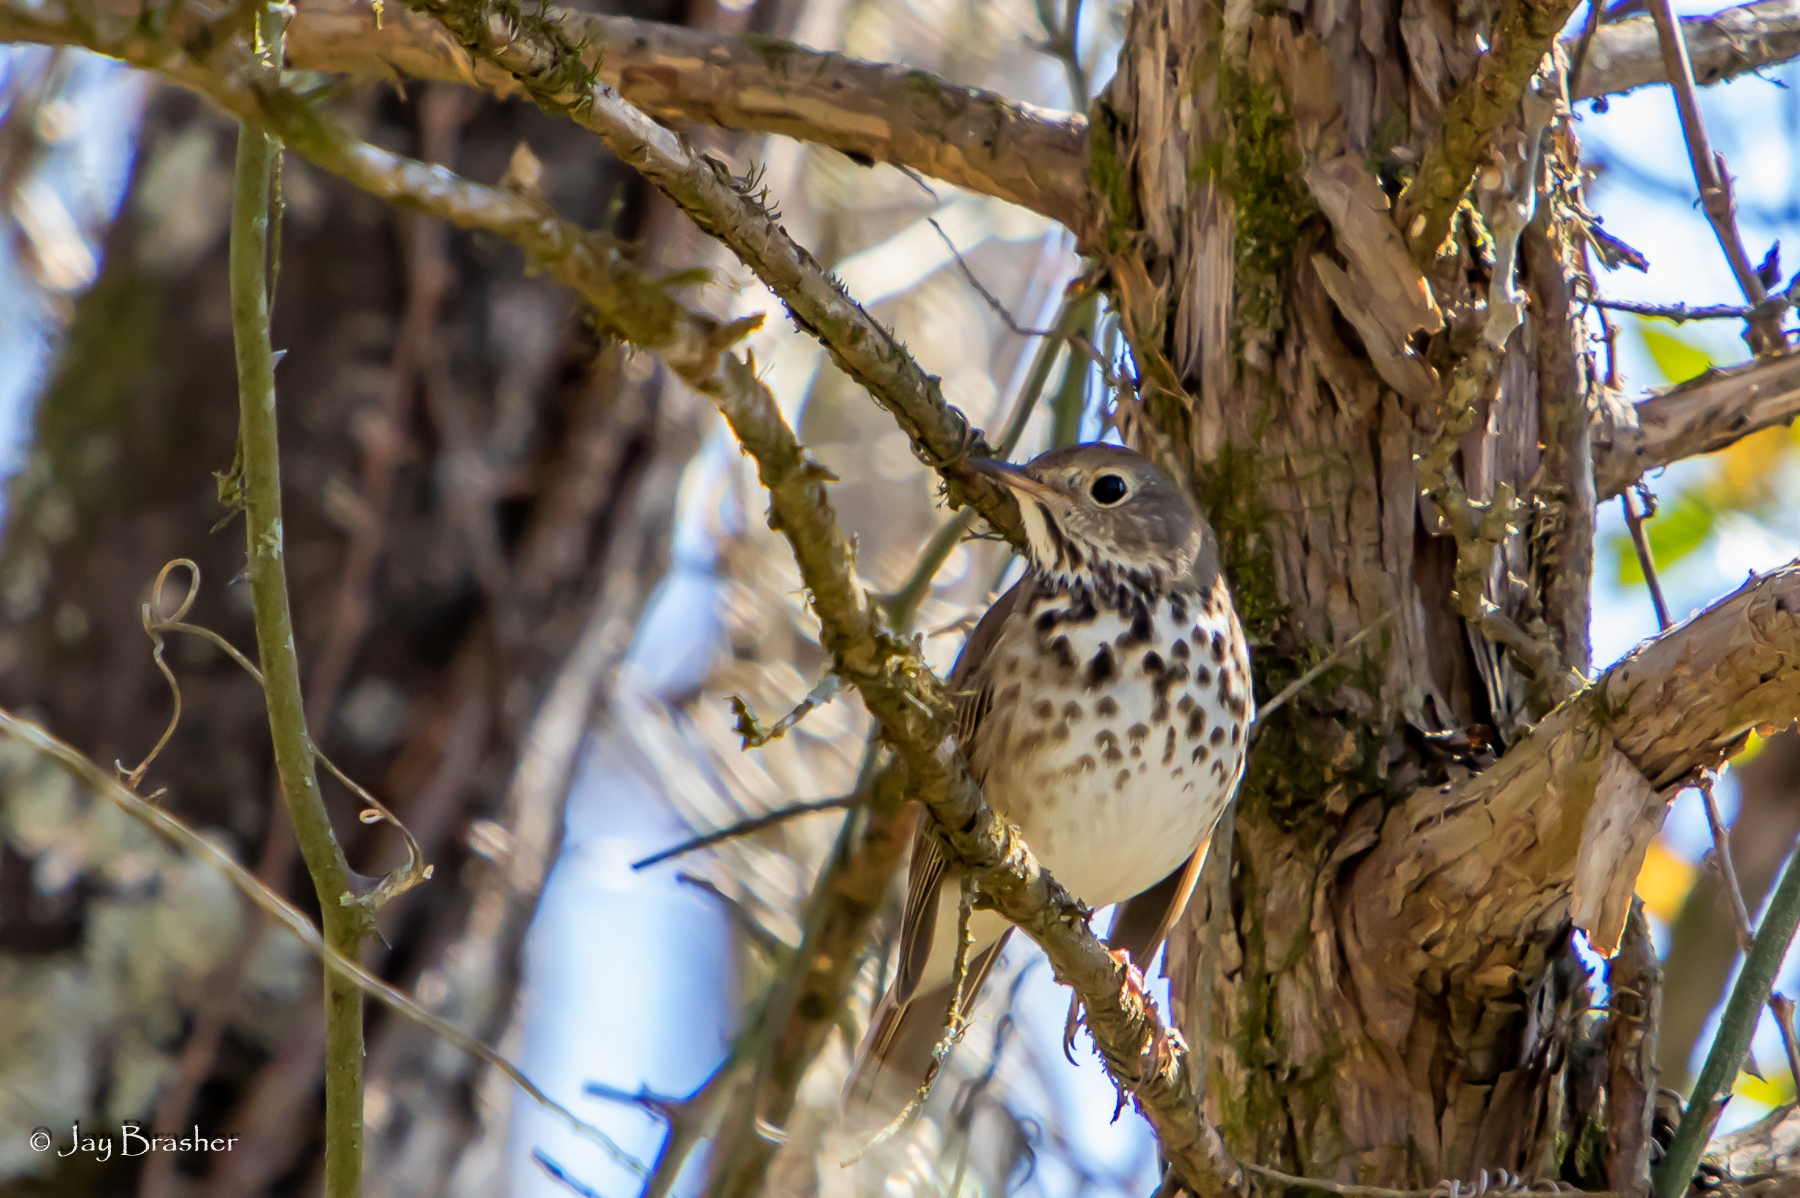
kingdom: Animalia
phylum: Chordata
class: Aves
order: Passeriformes
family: Turdidae
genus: Catharus
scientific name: Catharus guttatus
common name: Hermit thrush
